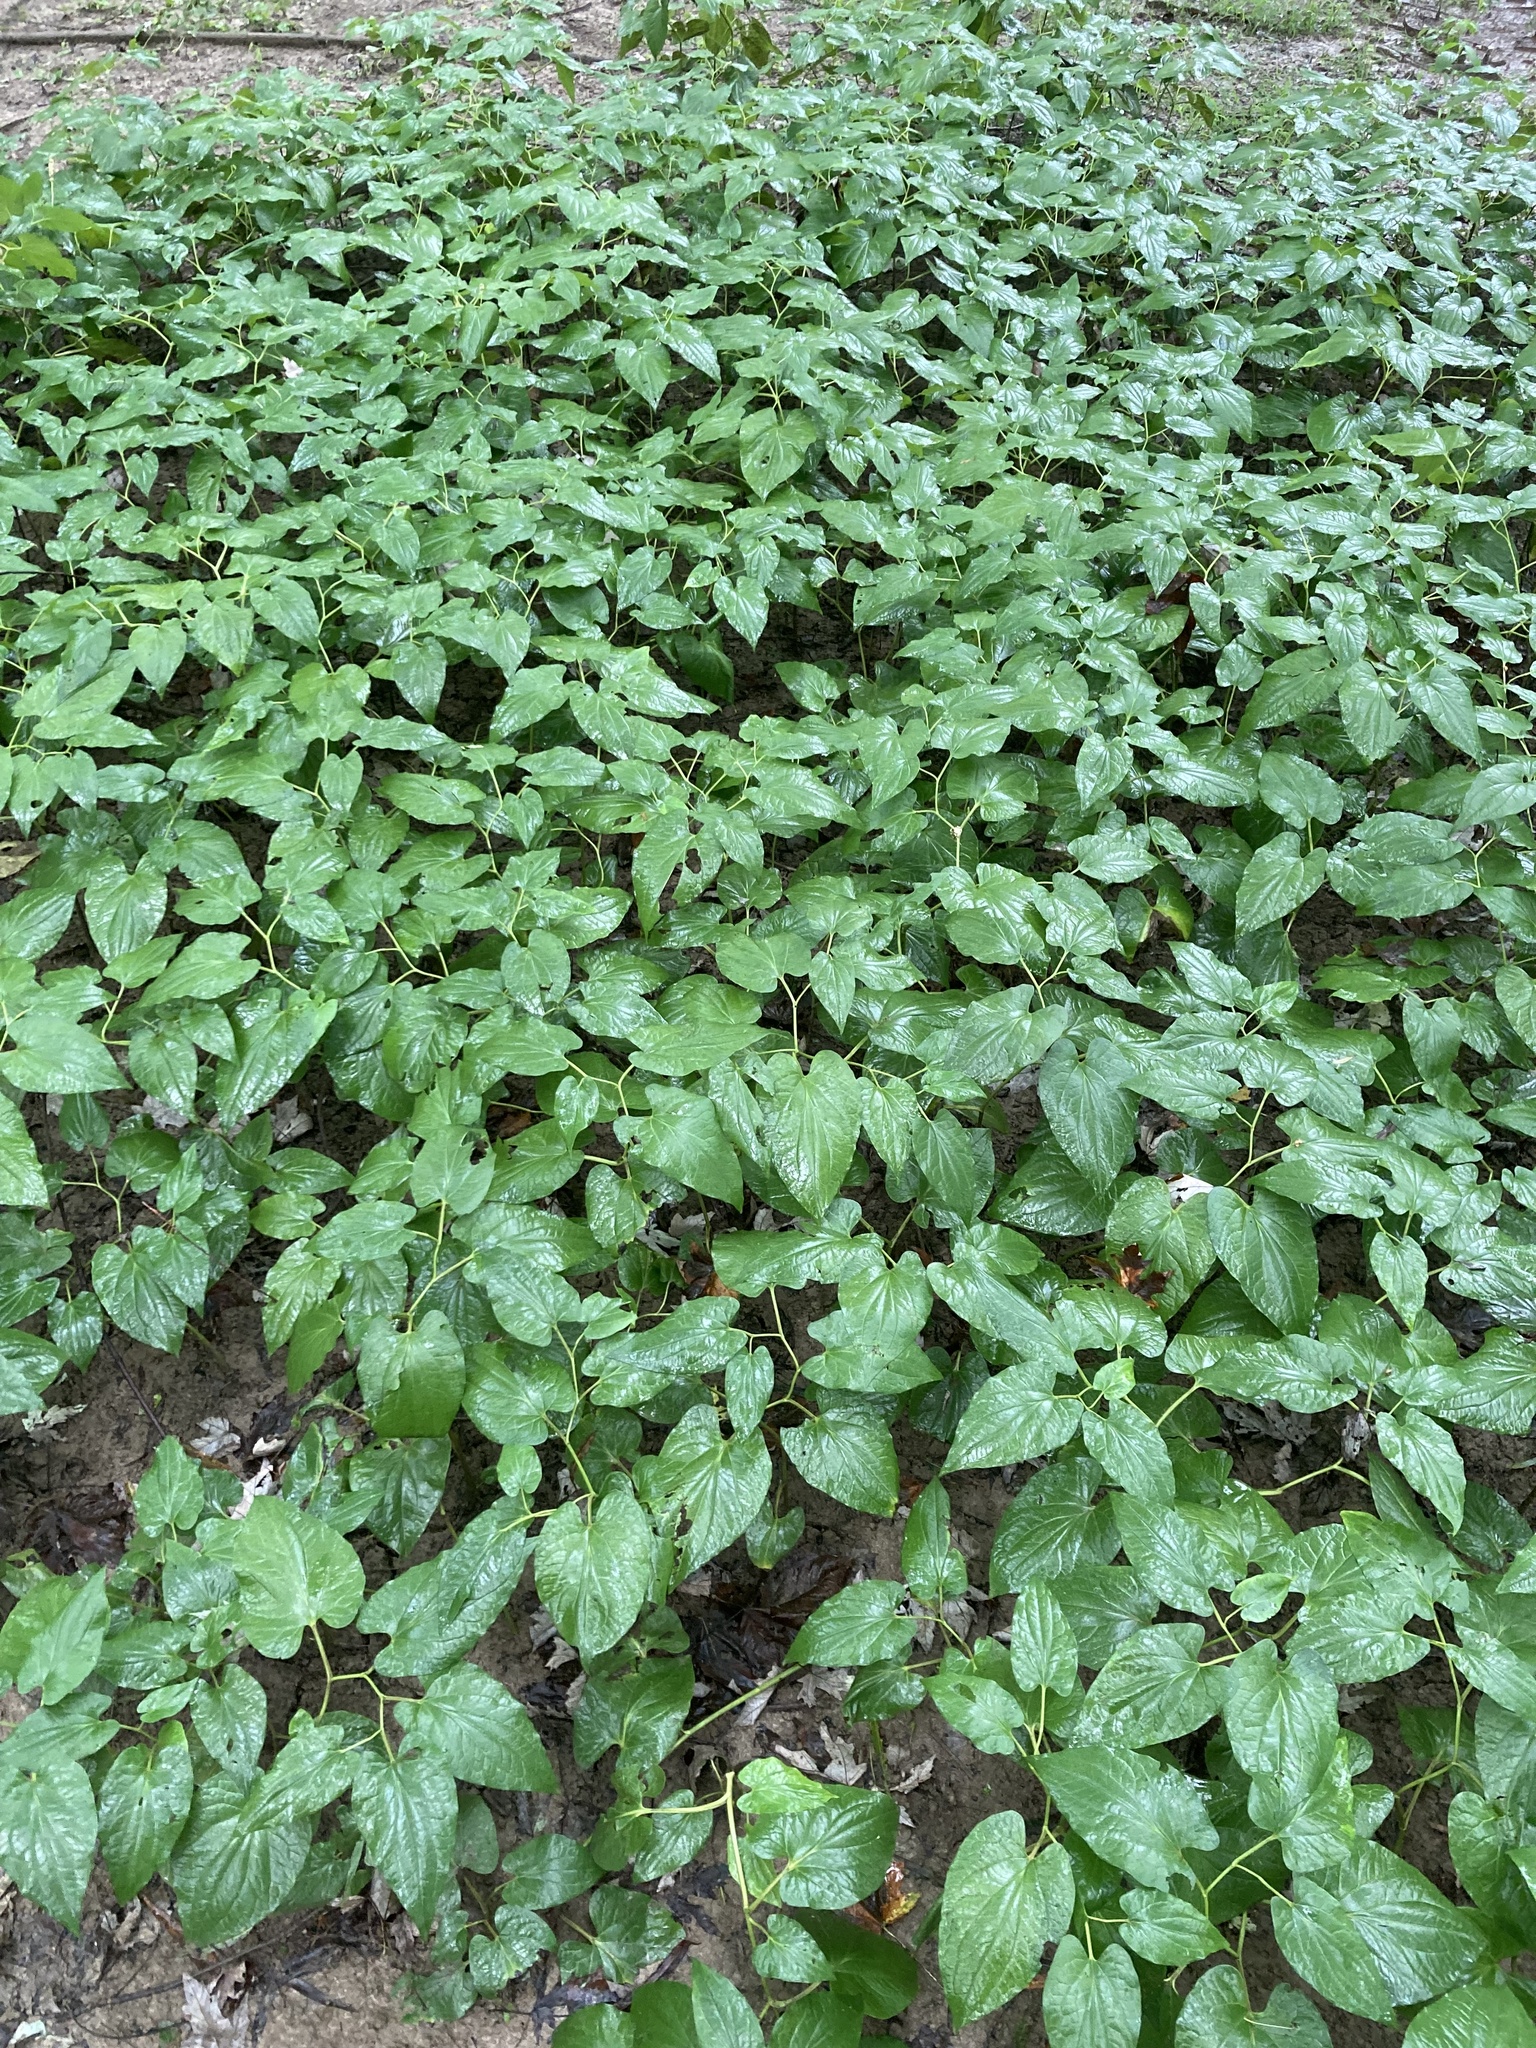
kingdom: Plantae
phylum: Tracheophyta
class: Magnoliopsida
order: Piperales
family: Saururaceae
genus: Saururus
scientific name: Saururus cernuus
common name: Lizard's-tail
